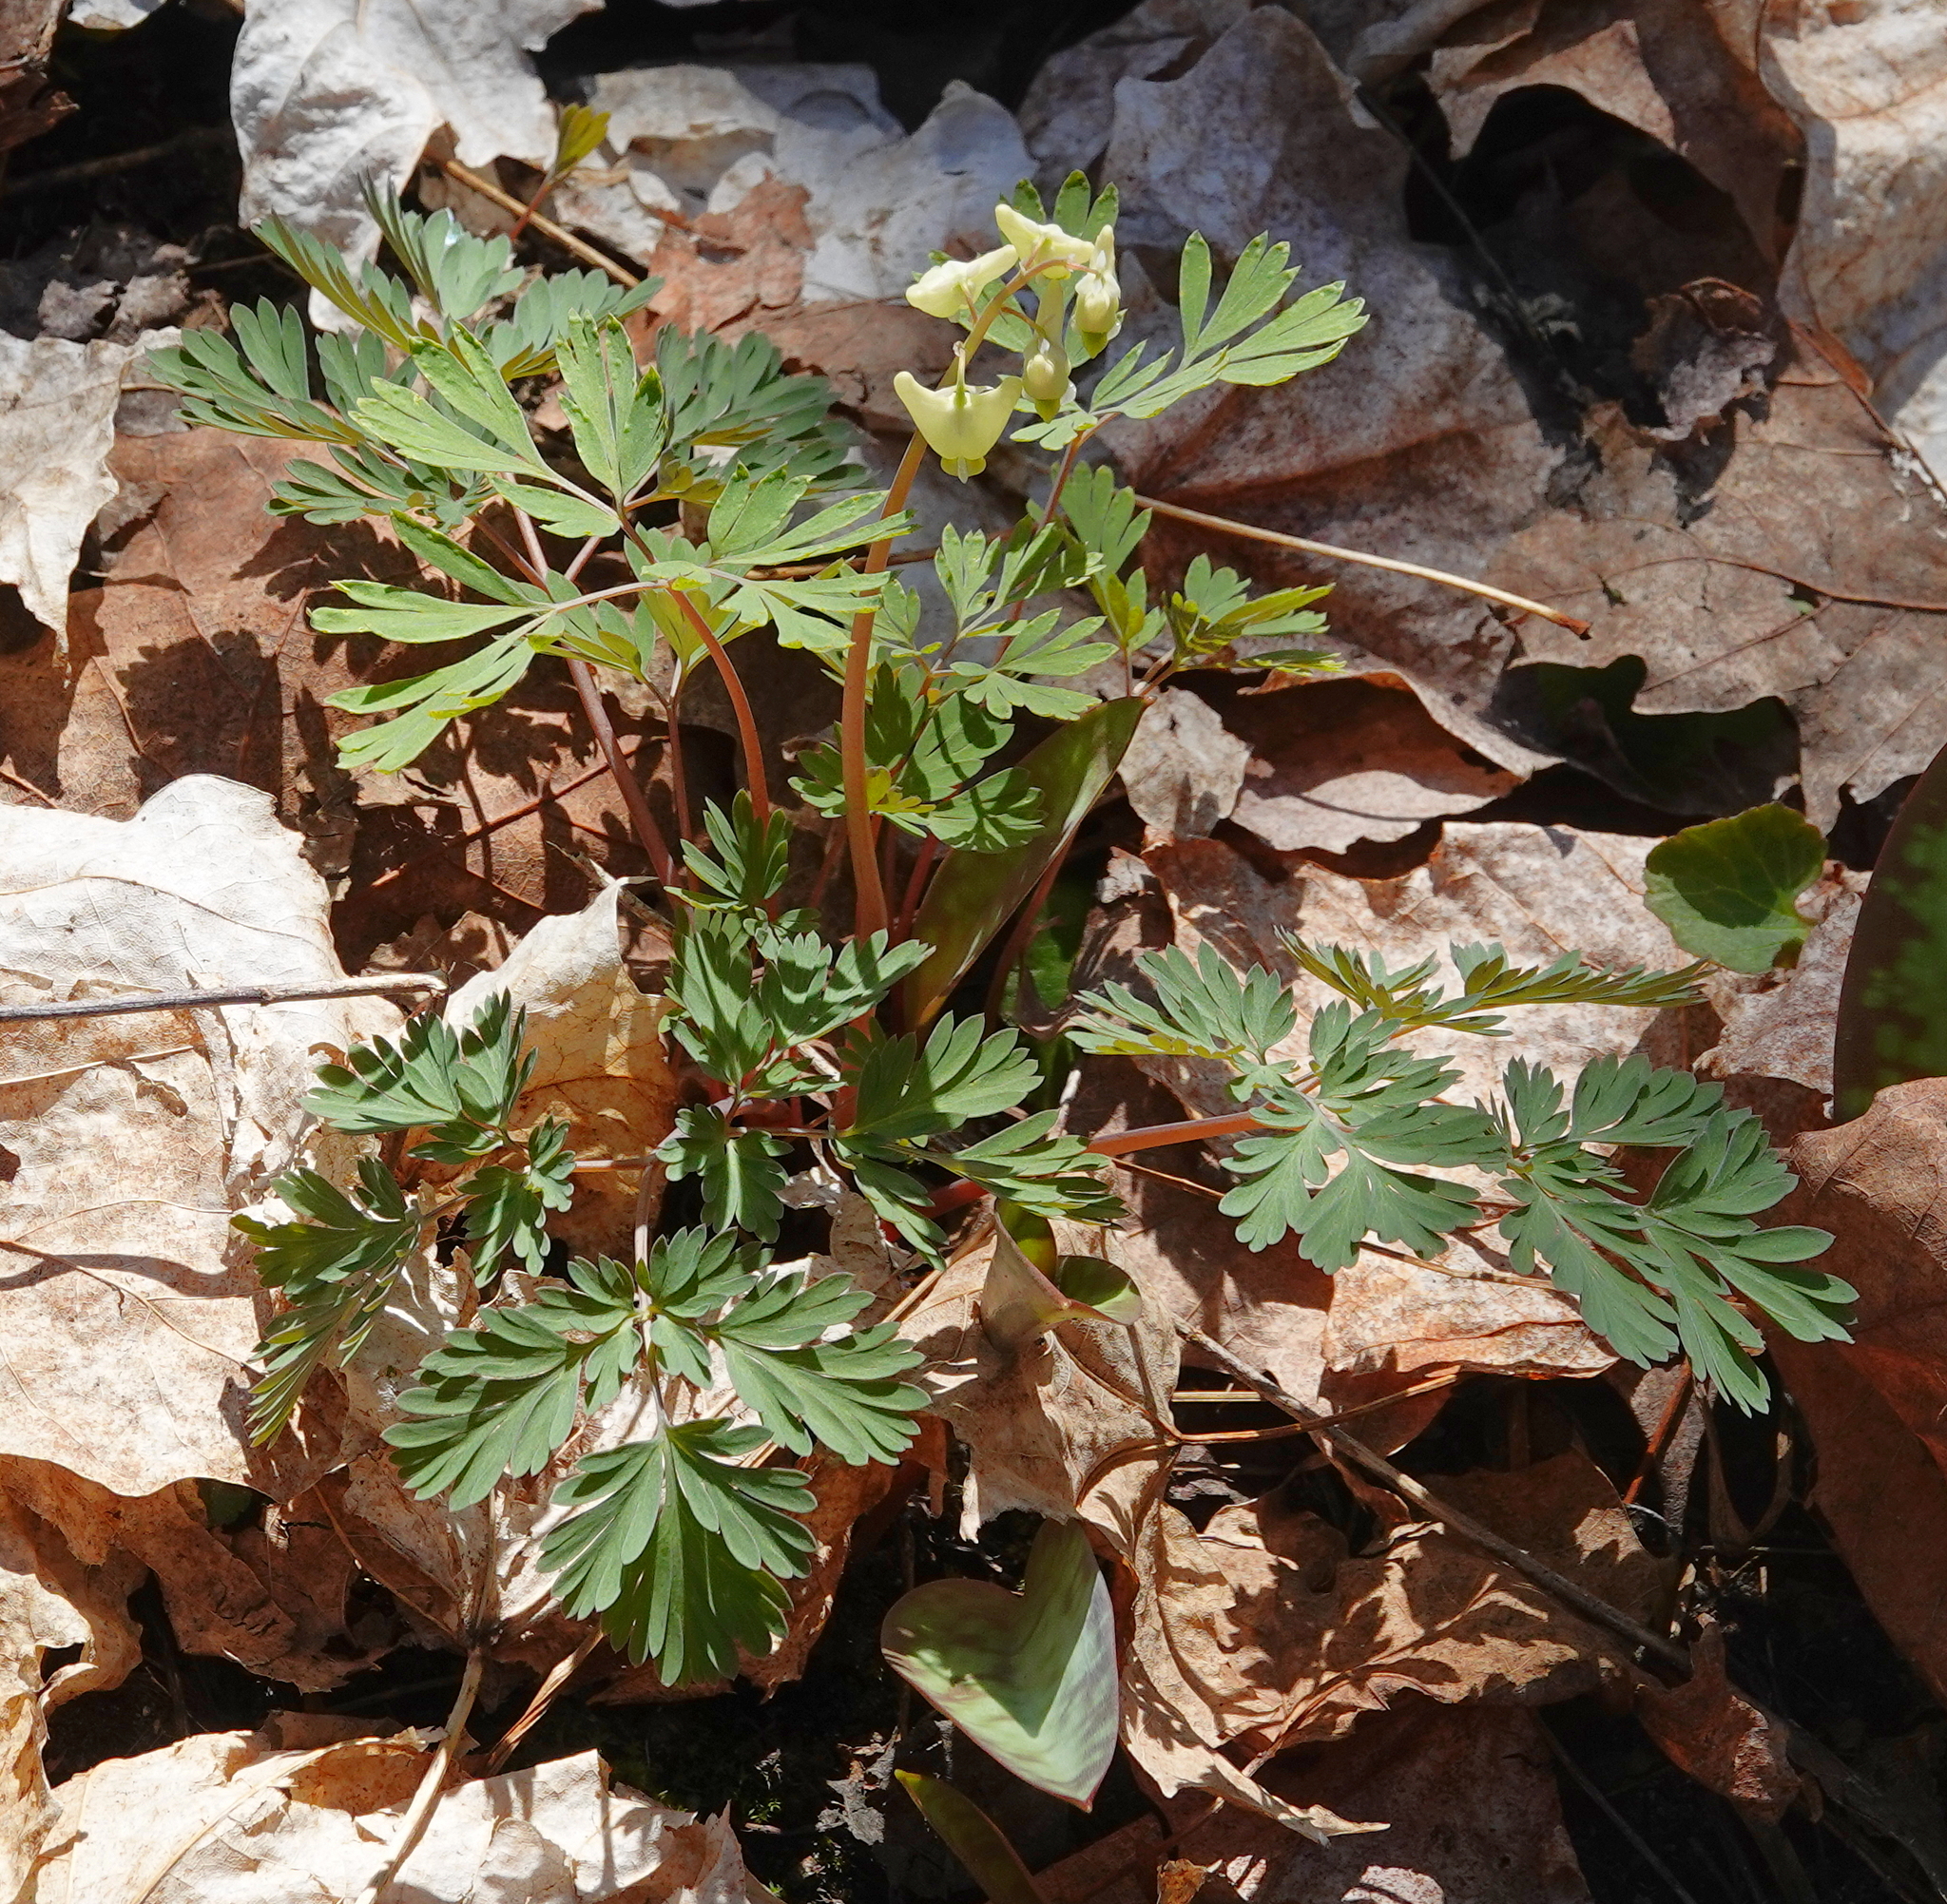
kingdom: Plantae
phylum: Tracheophyta
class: Magnoliopsida
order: Ranunculales
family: Papaveraceae
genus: Dicentra
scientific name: Dicentra cucullaria
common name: Dutchman's breeches
